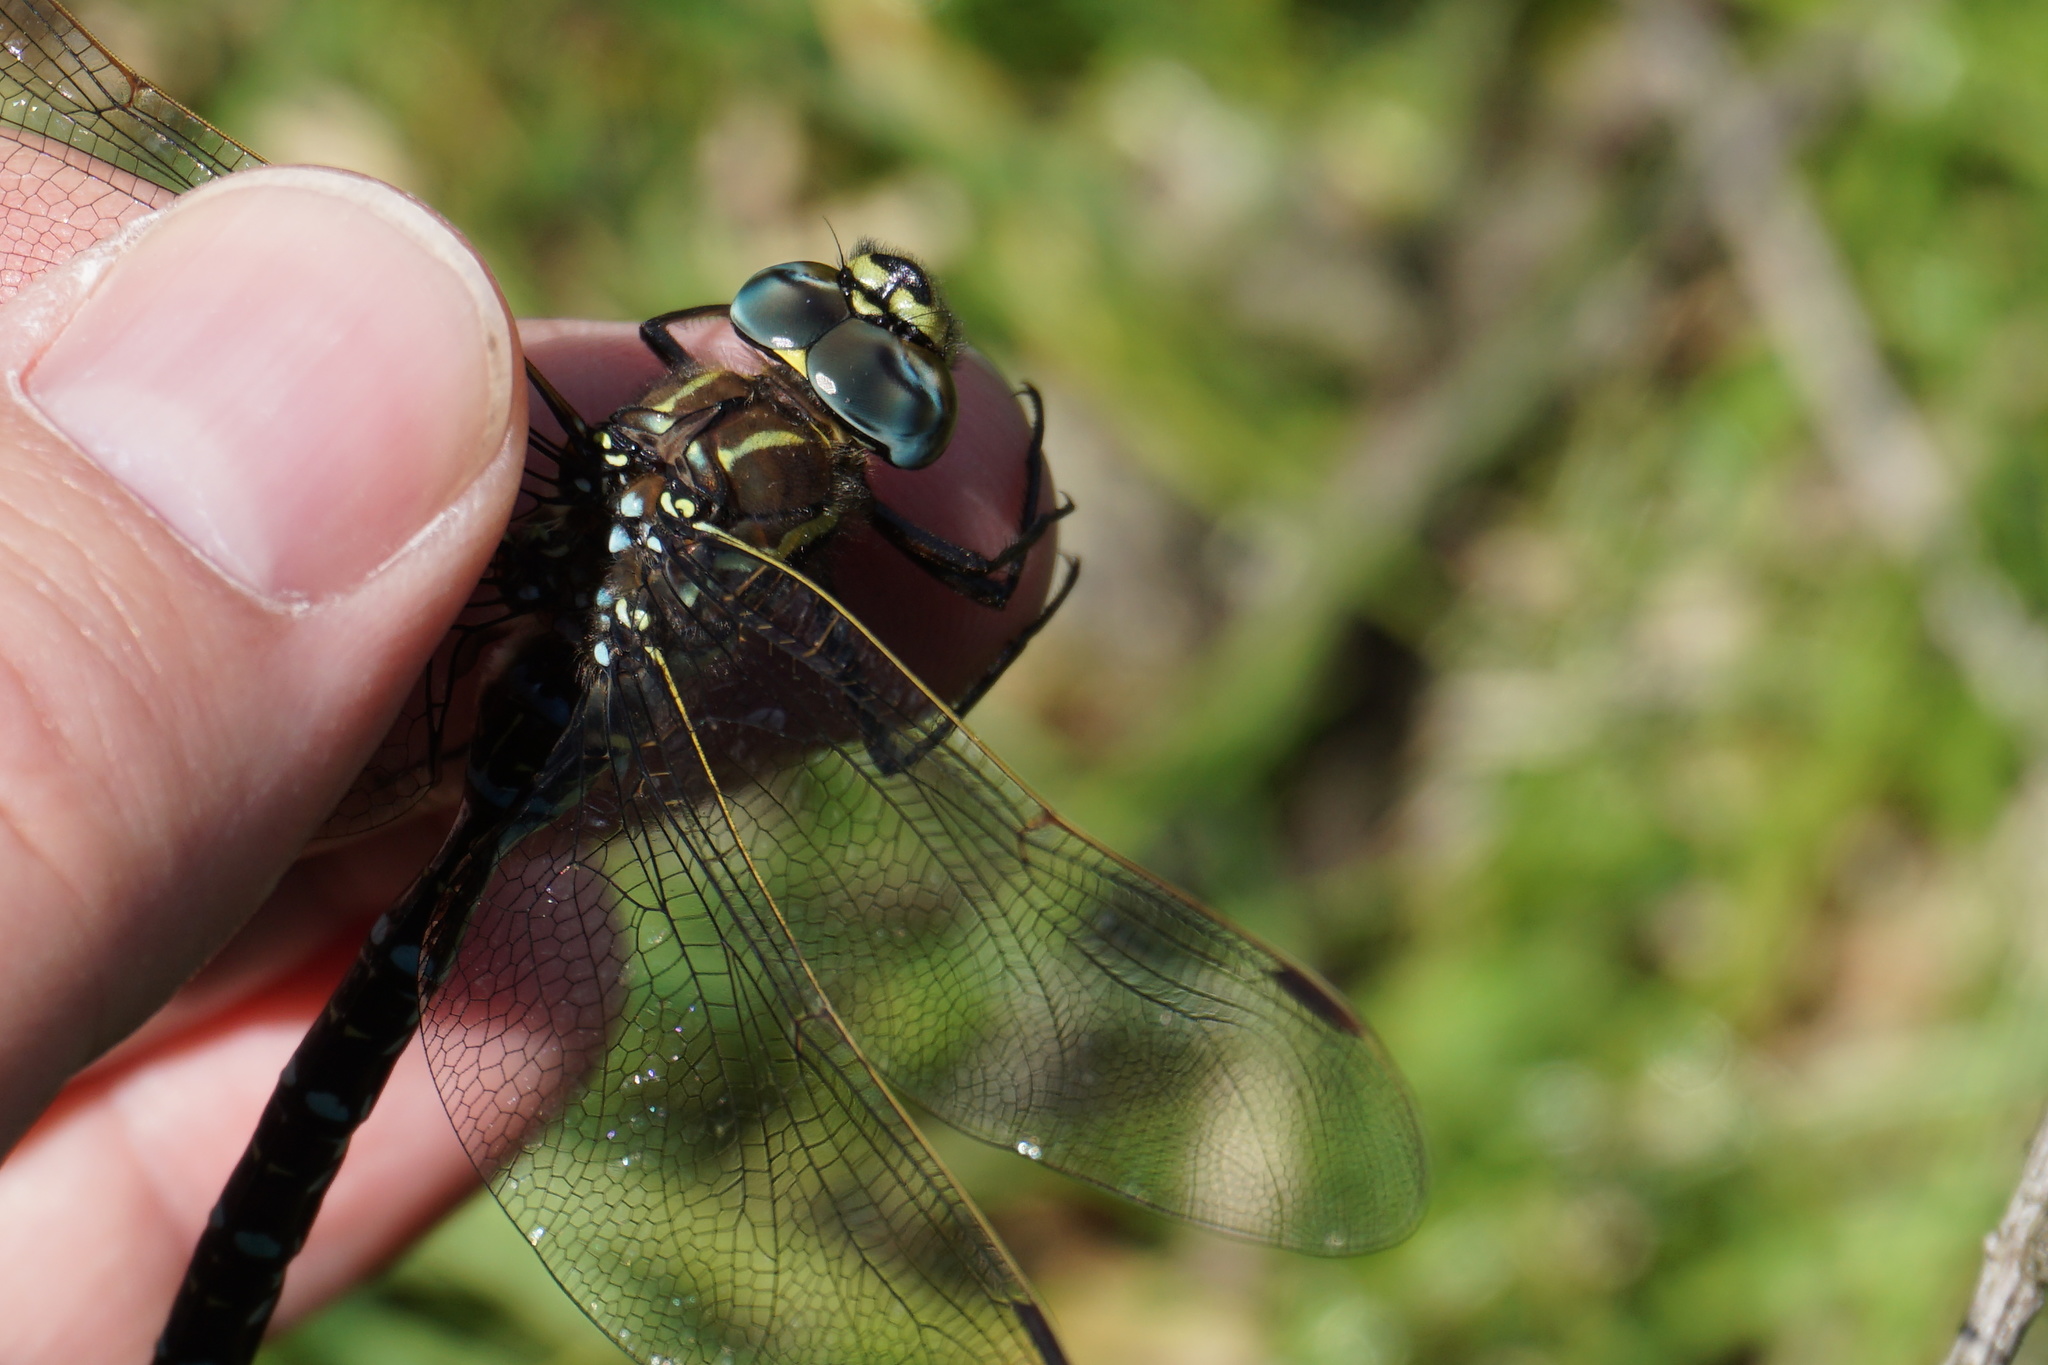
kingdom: Animalia
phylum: Arthropoda
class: Insecta
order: Odonata
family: Aeshnidae
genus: Aeshna
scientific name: Aeshna juncea
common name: Moorland hawker
